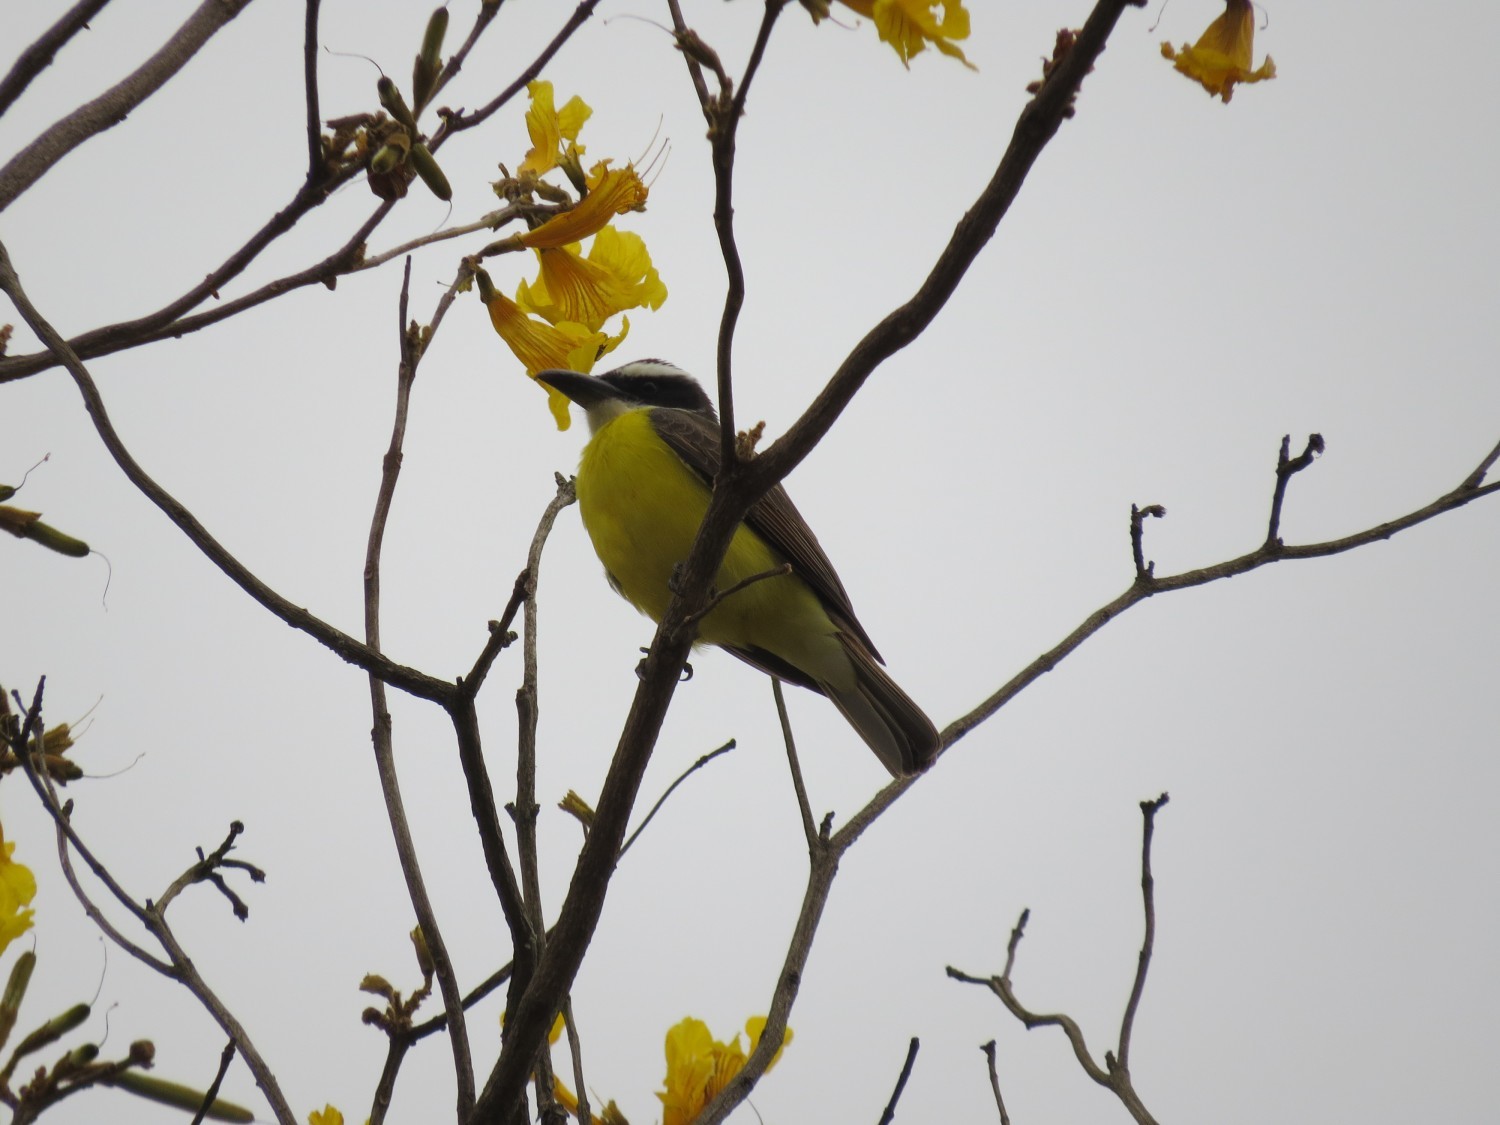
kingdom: Animalia
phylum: Chordata
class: Aves
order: Passeriformes
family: Tyrannidae
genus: Megarynchus
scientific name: Megarynchus pitangua
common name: Boat-billed flycatcher
